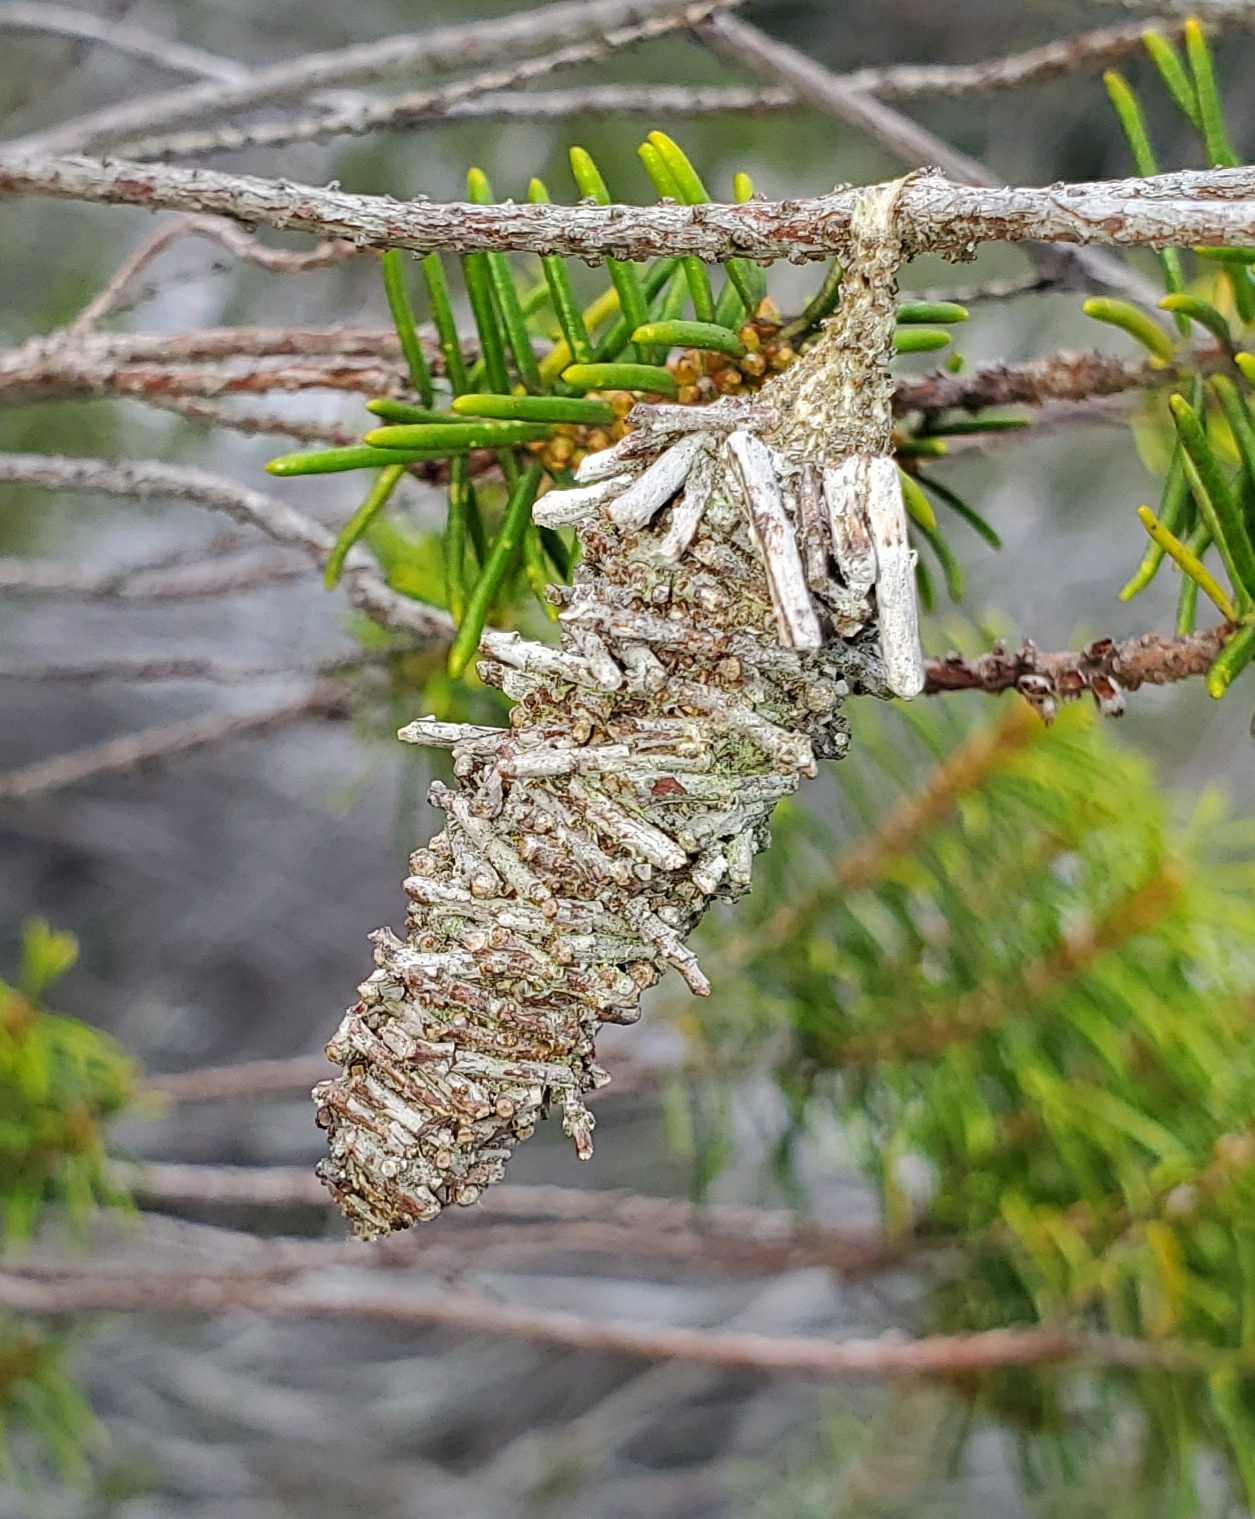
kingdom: Animalia
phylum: Arthropoda
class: Insecta
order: Lepidoptera
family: Psychidae
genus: Oiketicus
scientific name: Oiketicus
